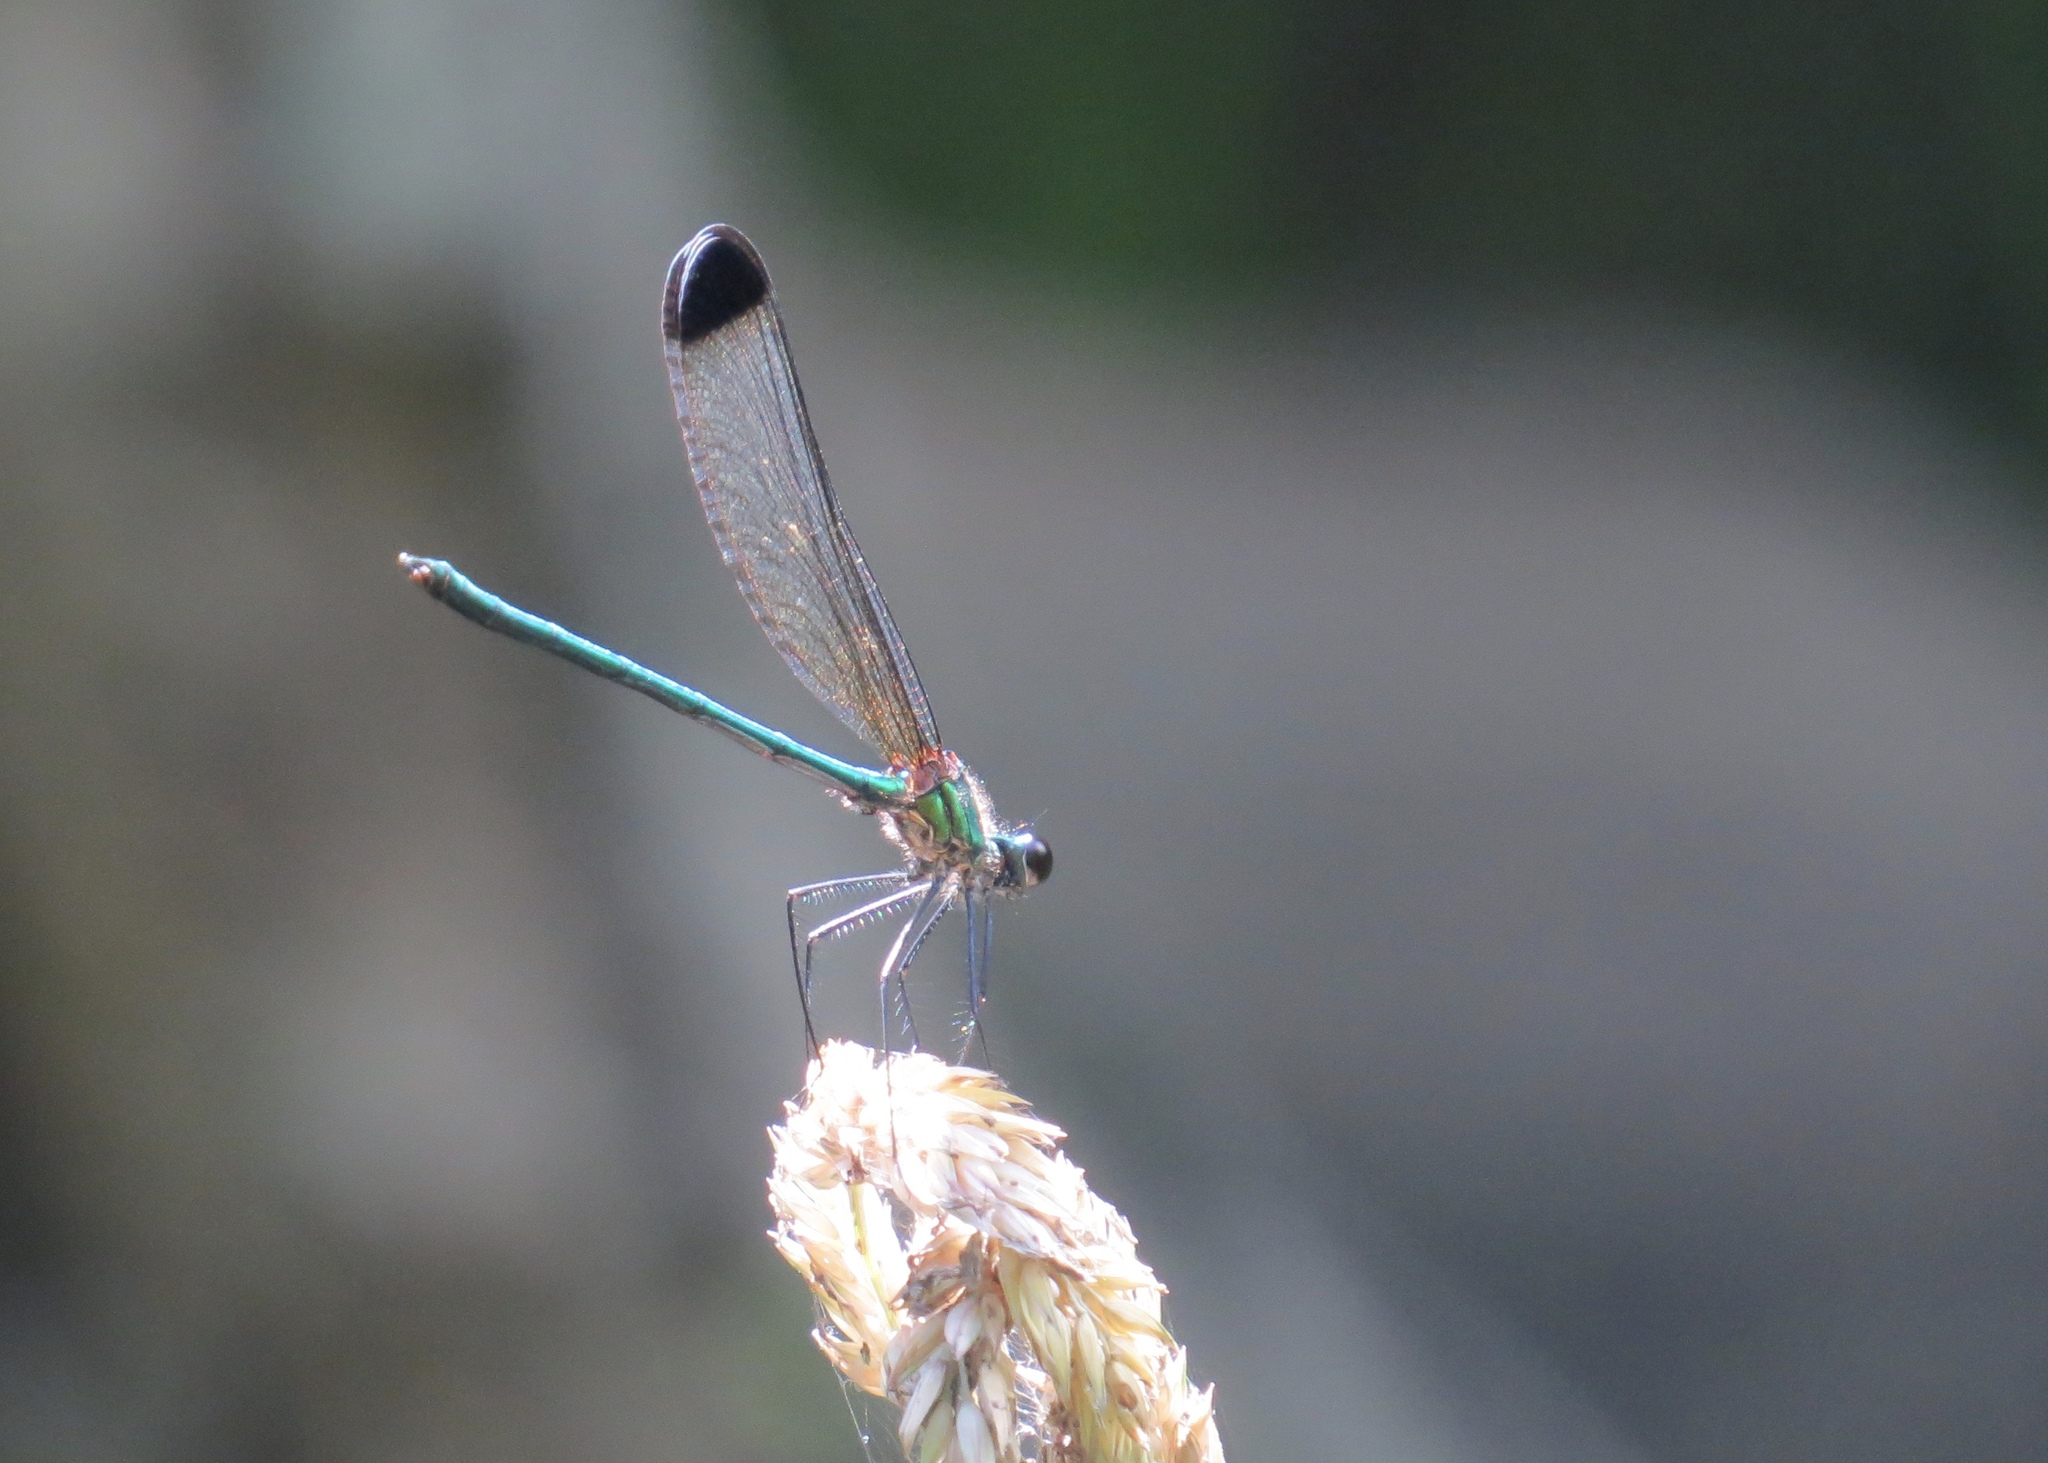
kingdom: Animalia
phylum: Arthropoda
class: Insecta
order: Odonata
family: Calopterygidae
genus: Calopteryx
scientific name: Calopteryx dimidiata
